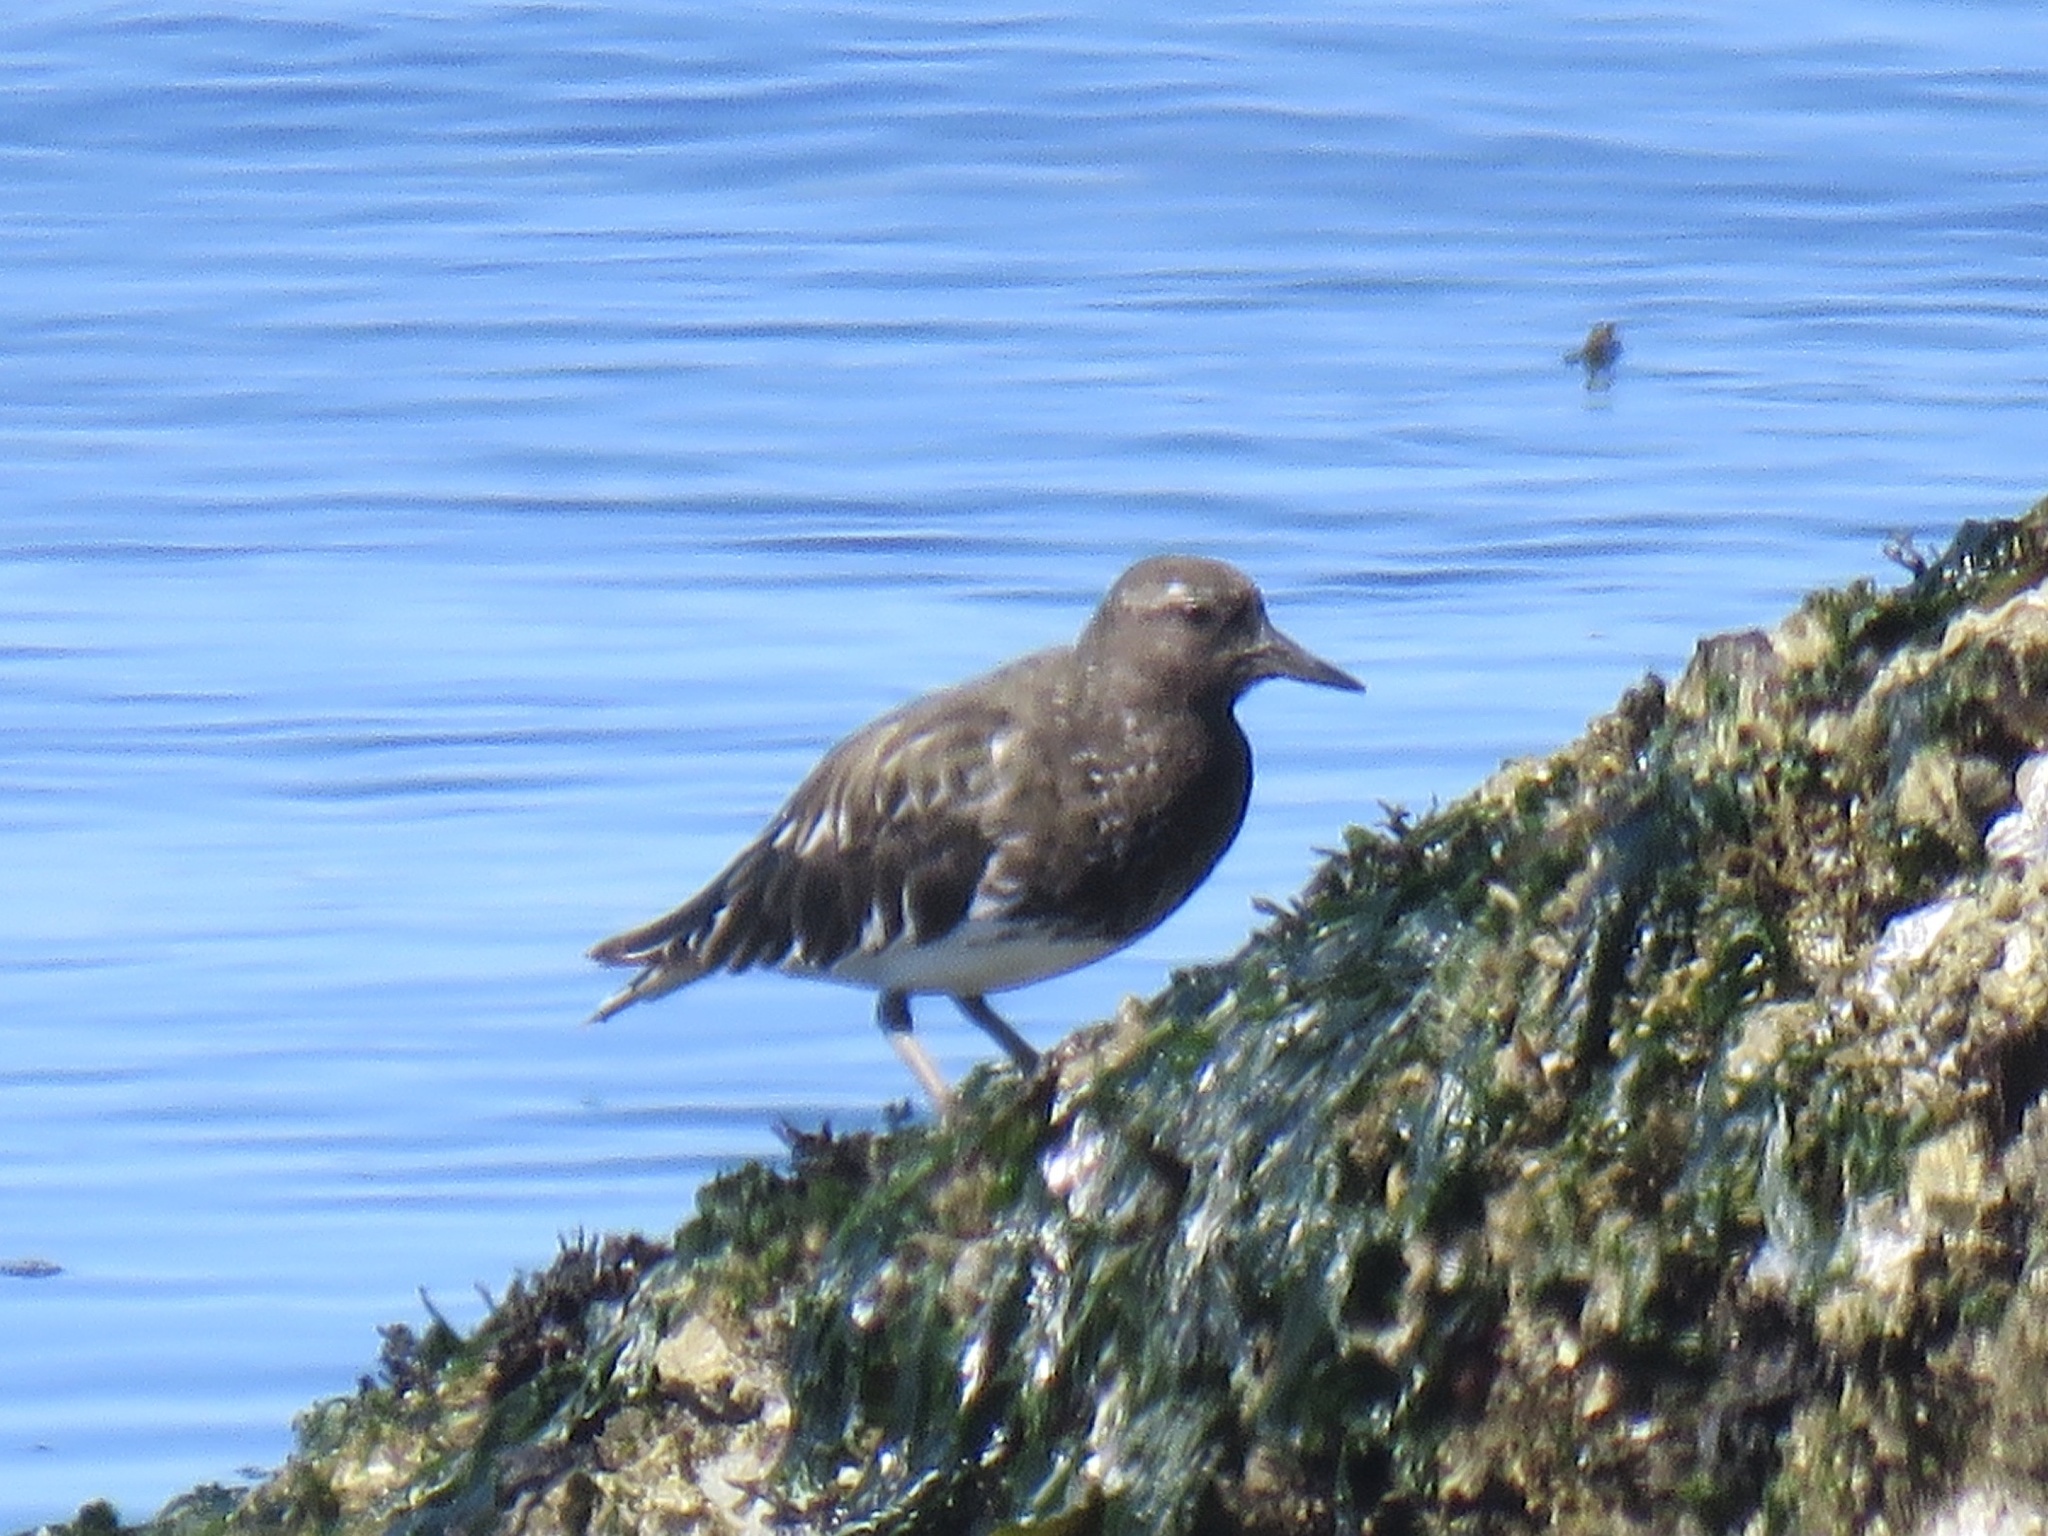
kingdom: Animalia
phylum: Chordata
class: Aves
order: Charadriiformes
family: Scolopacidae
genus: Arenaria
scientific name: Arenaria melanocephala
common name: Black turnstone
